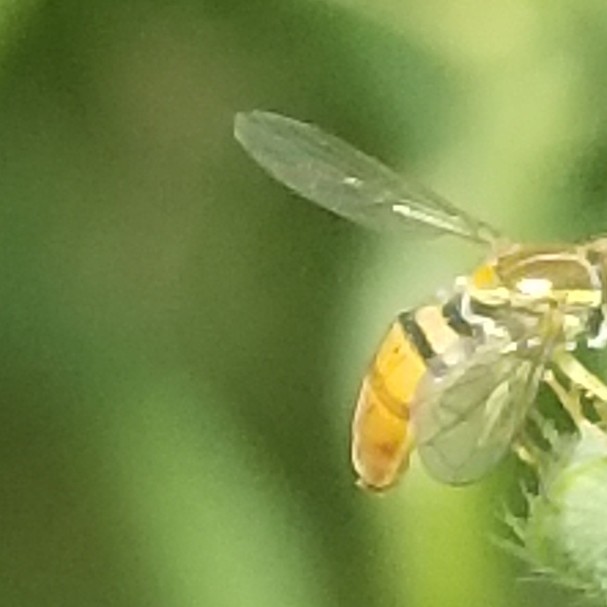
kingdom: Animalia
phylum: Arthropoda
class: Insecta
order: Diptera
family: Syrphidae
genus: Toxomerus
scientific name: Toxomerus marginatus
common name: Syrphid fly
